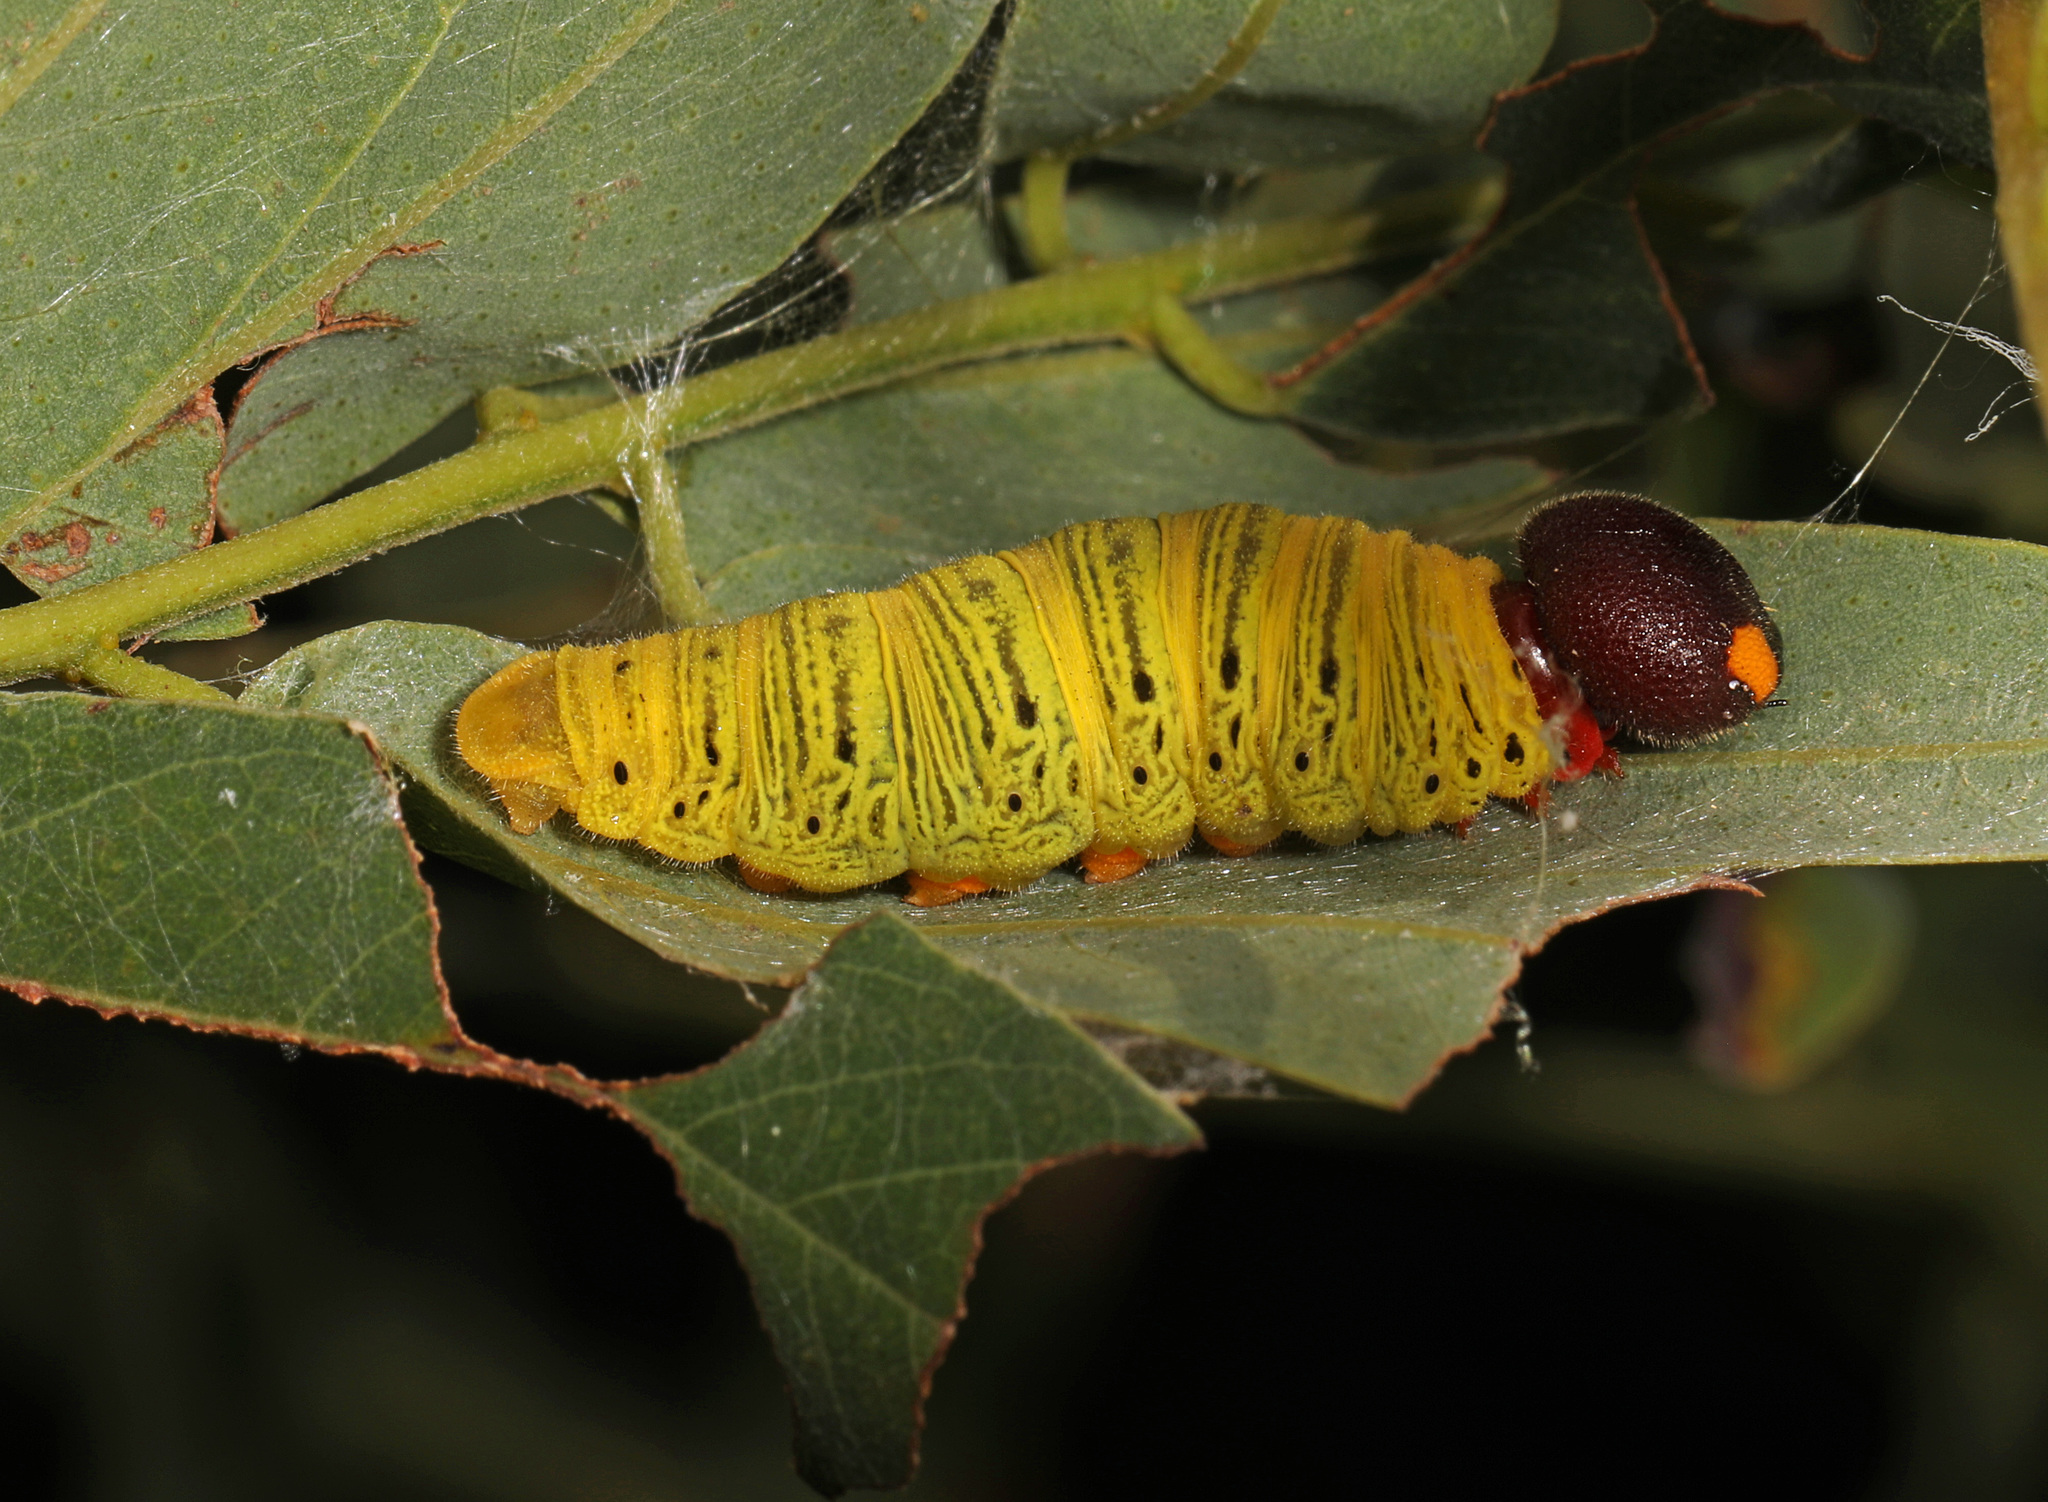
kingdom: Animalia
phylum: Arthropoda
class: Insecta
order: Lepidoptera
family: Hesperiidae
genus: Epargyreus
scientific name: Epargyreus clarus
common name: Silver-spotted skipper
